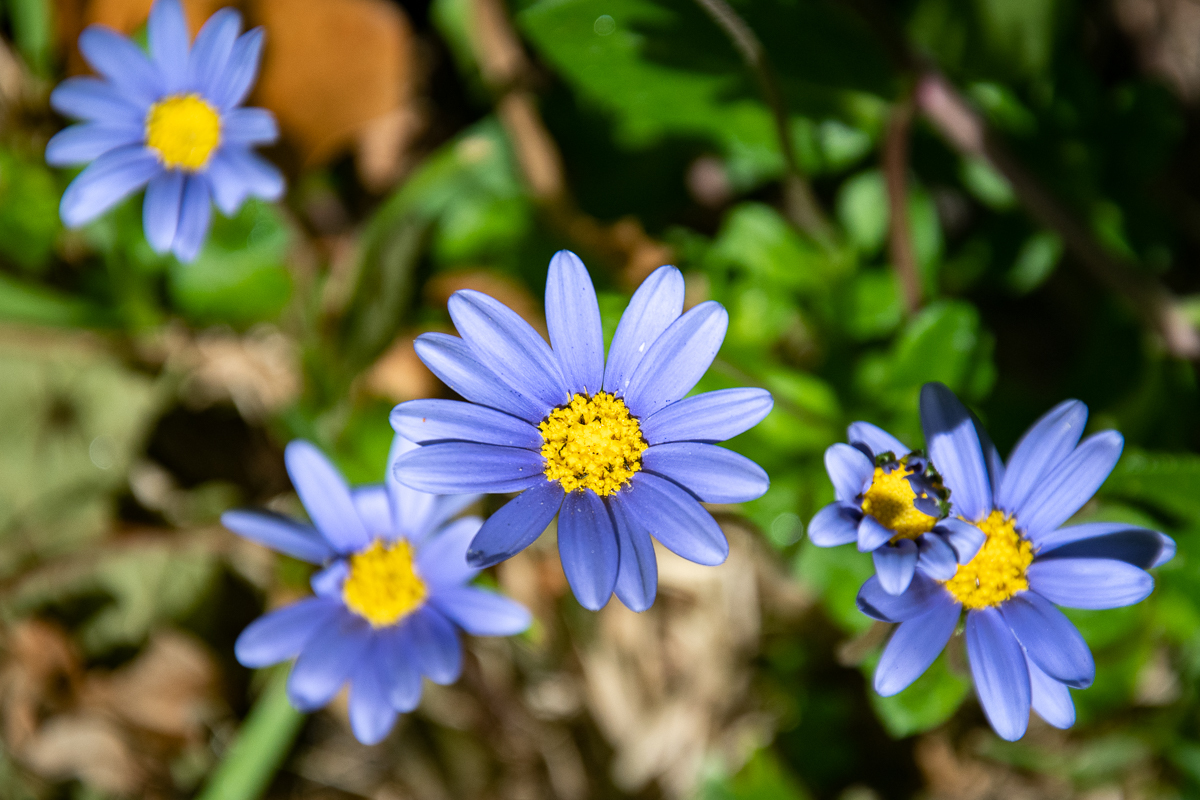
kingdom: Plantae
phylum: Tracheophyta
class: Magnoliopsida
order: Asterales
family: Asteraceae
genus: Felicia
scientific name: Felicia aethiopica
